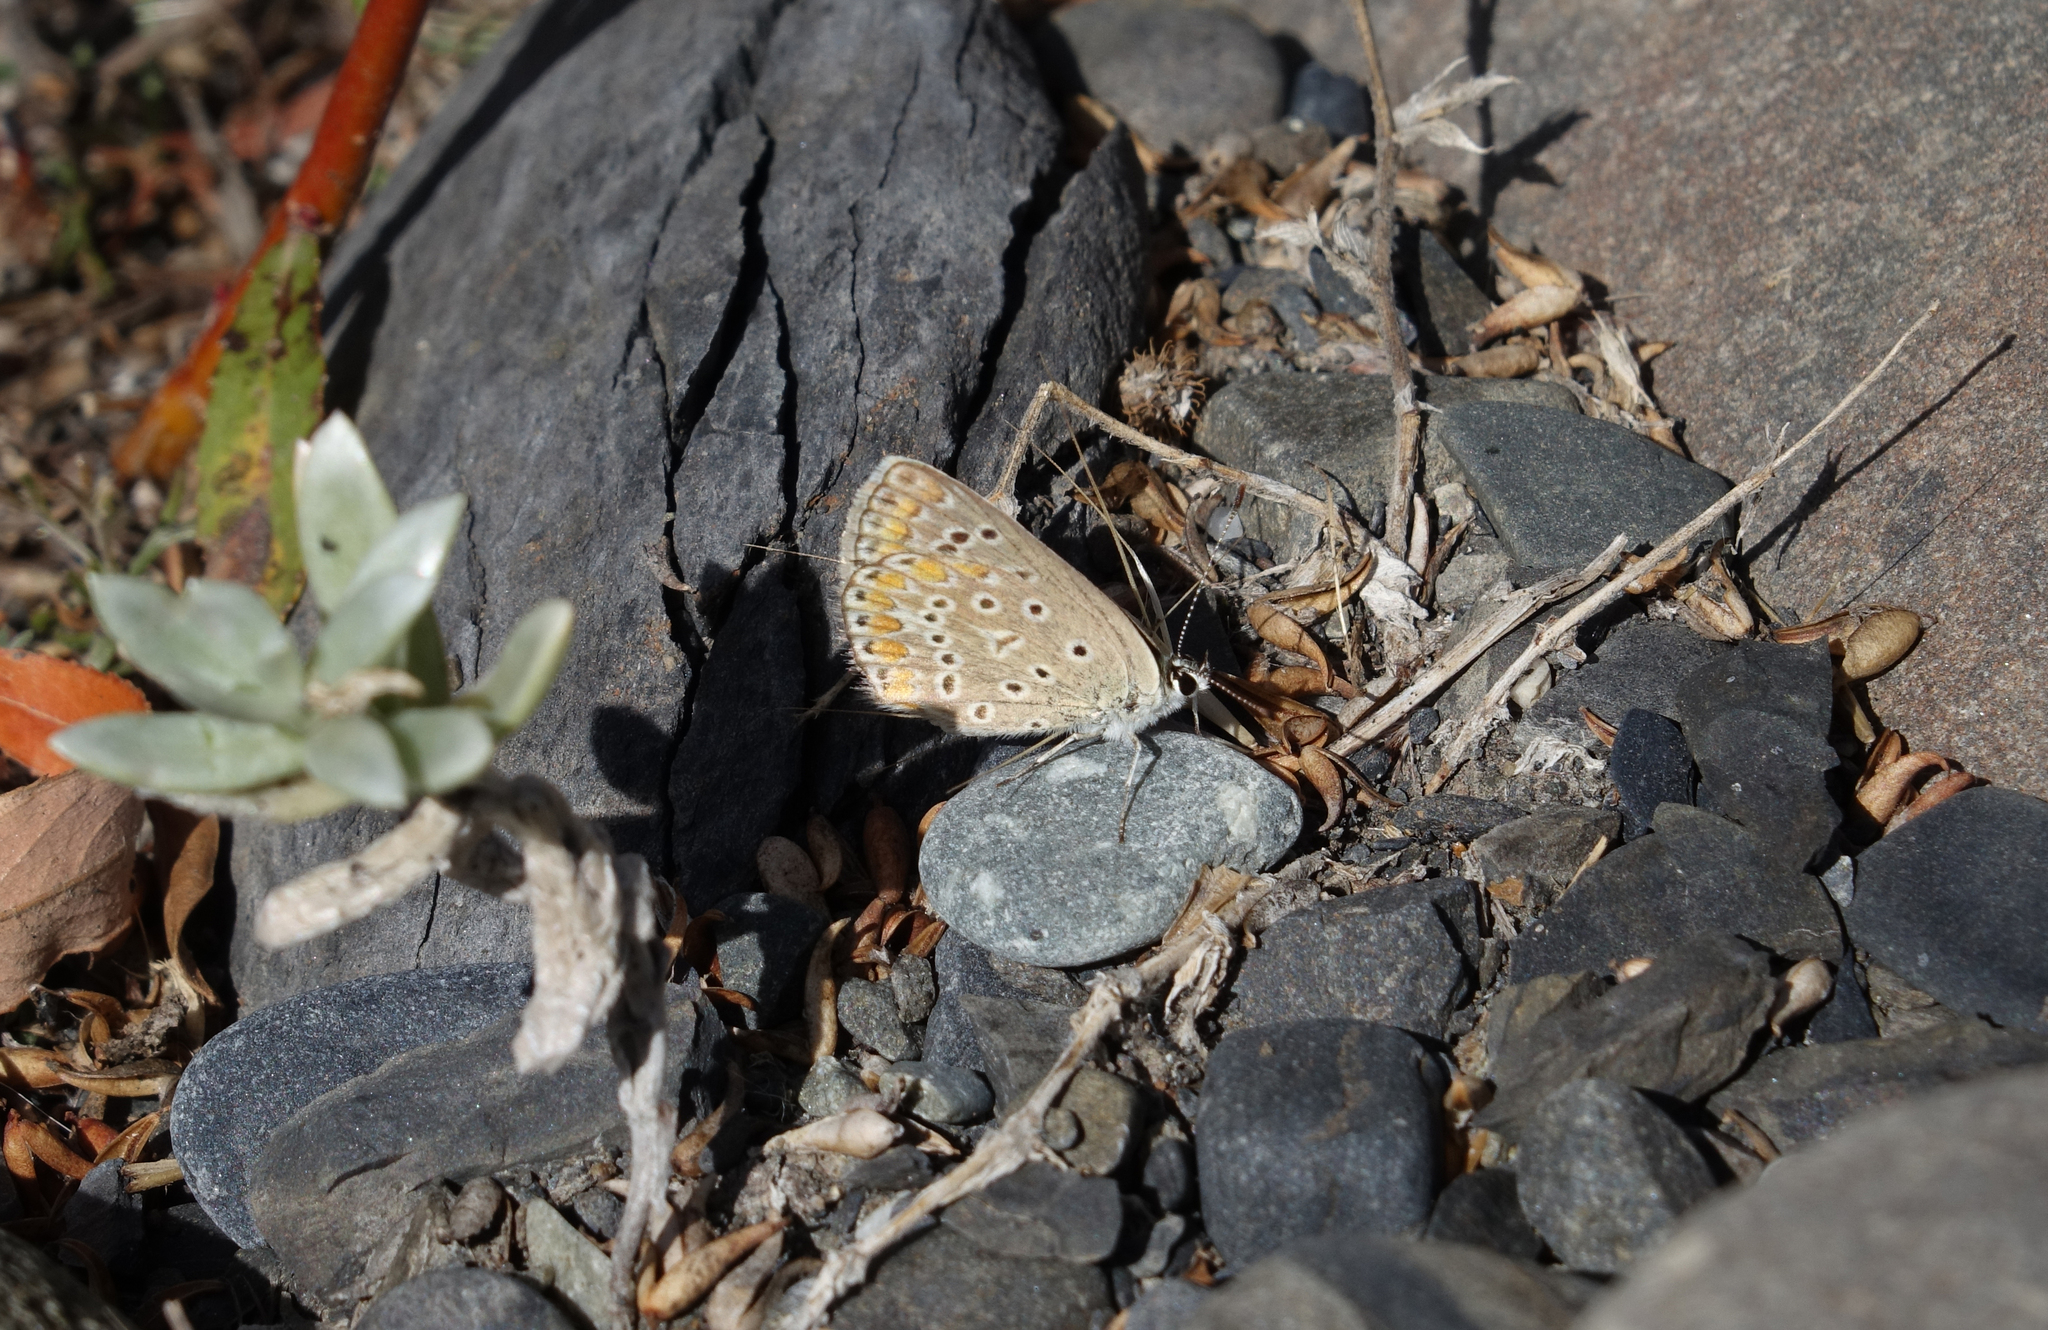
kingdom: Animalia
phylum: Arthropoda
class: Insecta
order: Lepidoptera
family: Lycaenidae
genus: Polyommatus
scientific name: Polyommatus thersites
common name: Chapman's blue
